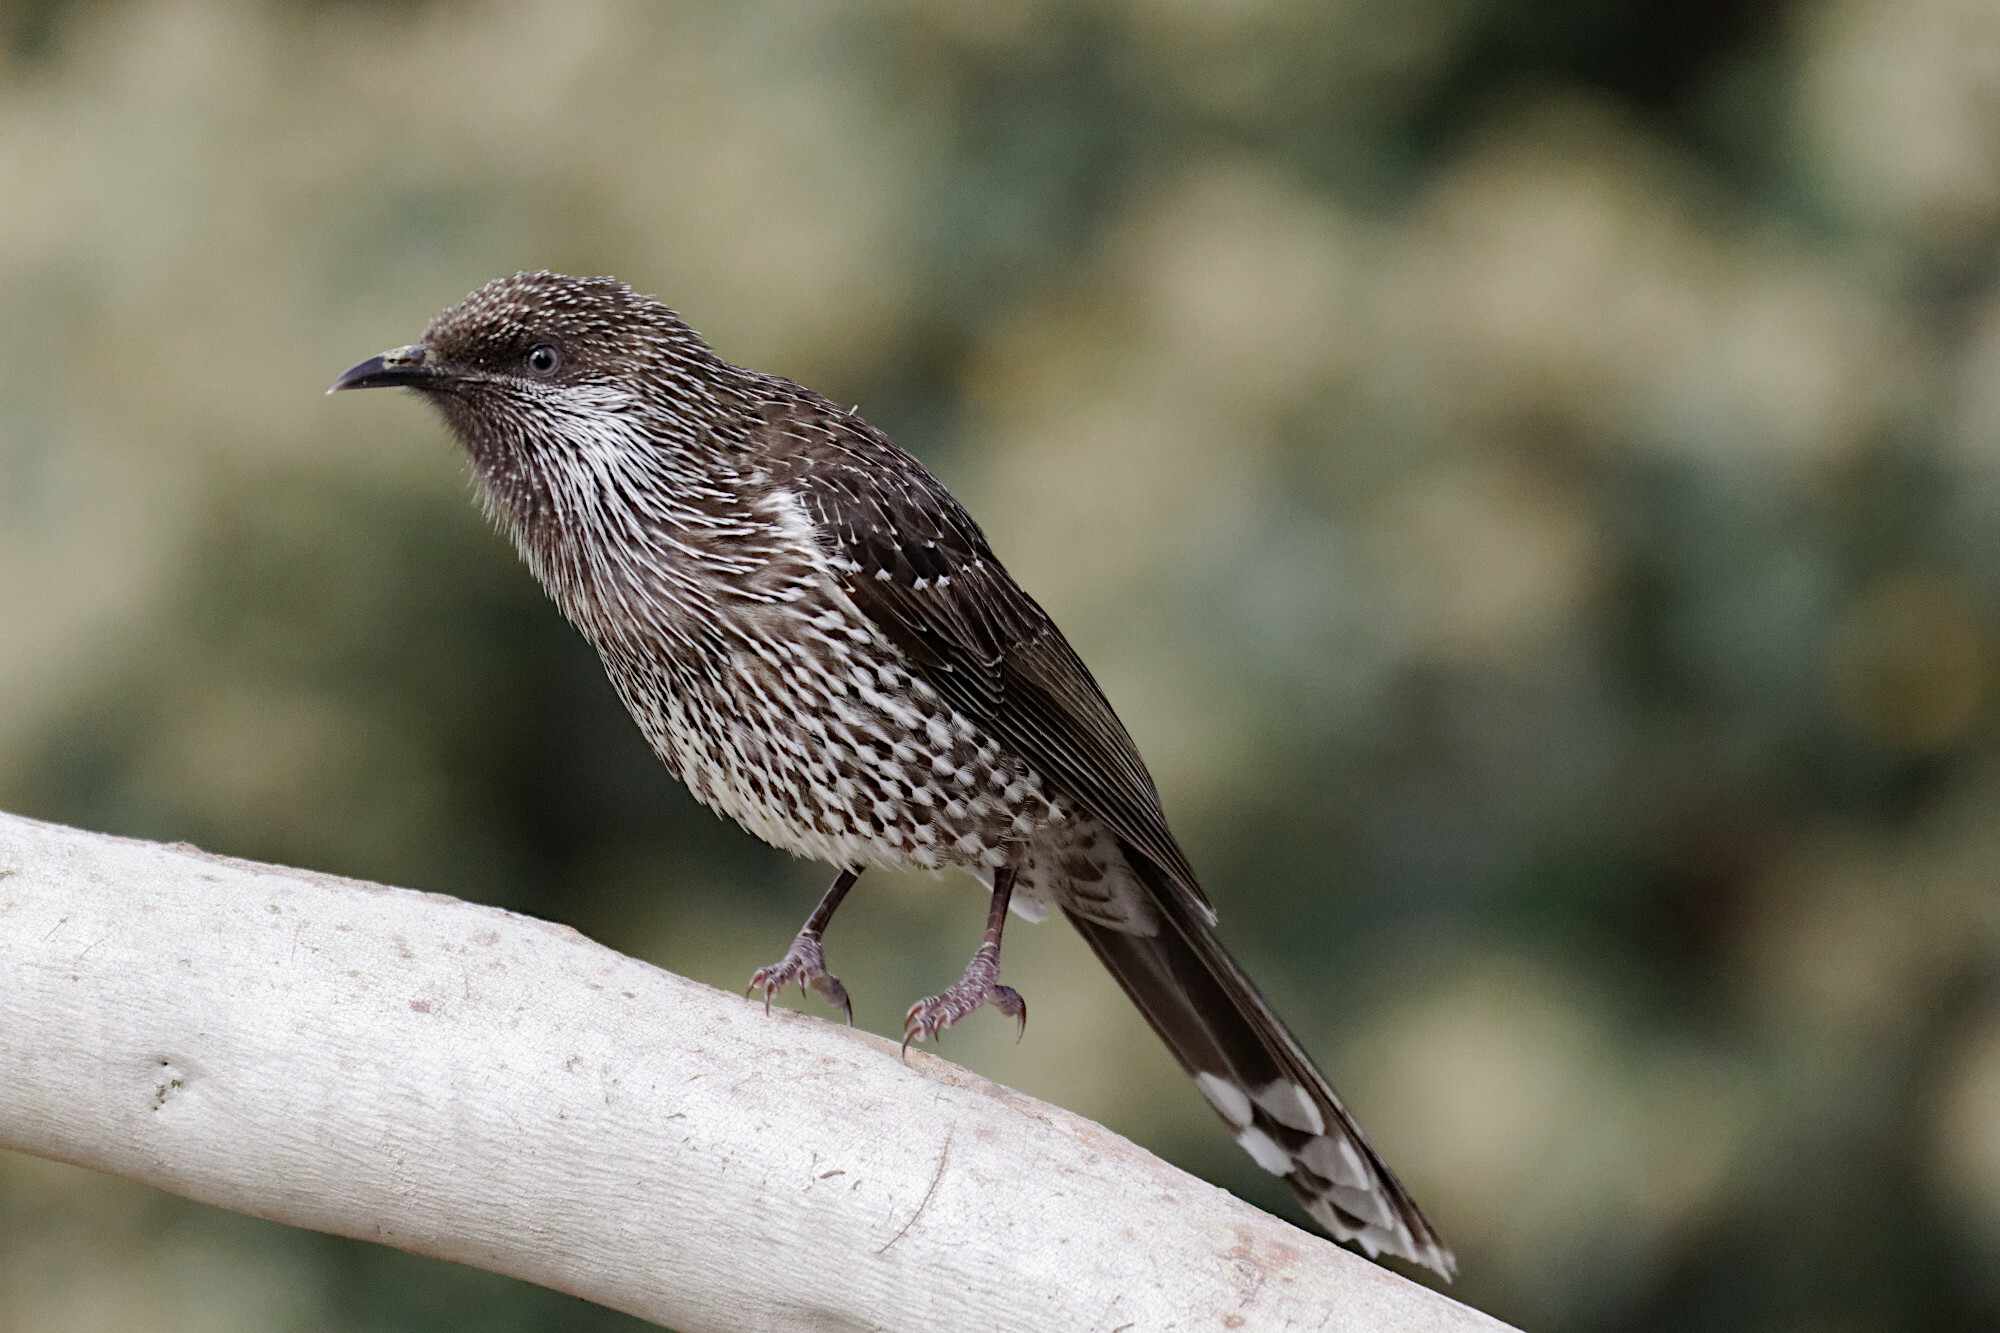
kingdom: Animalia
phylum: Chordata
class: Aves
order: Passeriformes
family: Meliphagidae
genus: Anthochaera
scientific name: Anthochaera chrysoptera
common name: Little wattlebird
